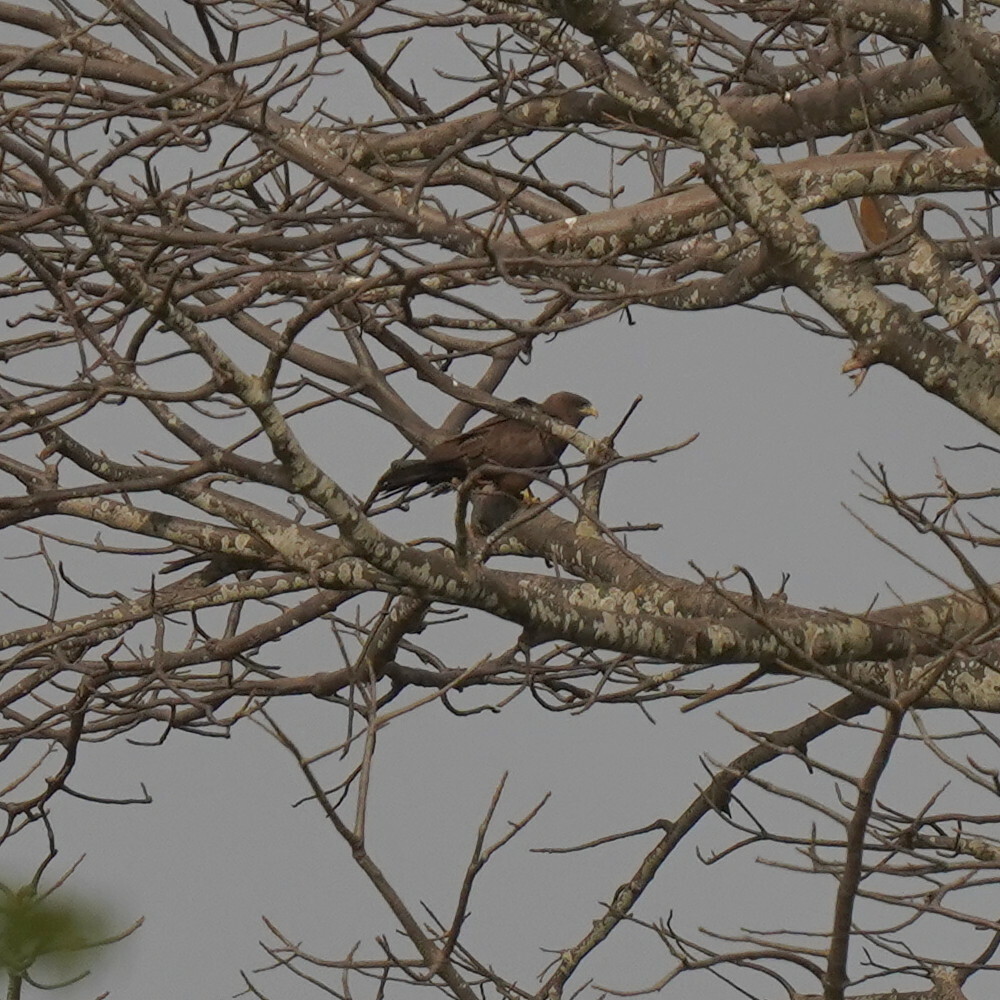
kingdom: Animalia
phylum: Chordata
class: Aves
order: Accipitriformes
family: Accipitridae
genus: Milvus
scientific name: Milvus migrans
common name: Black kite
